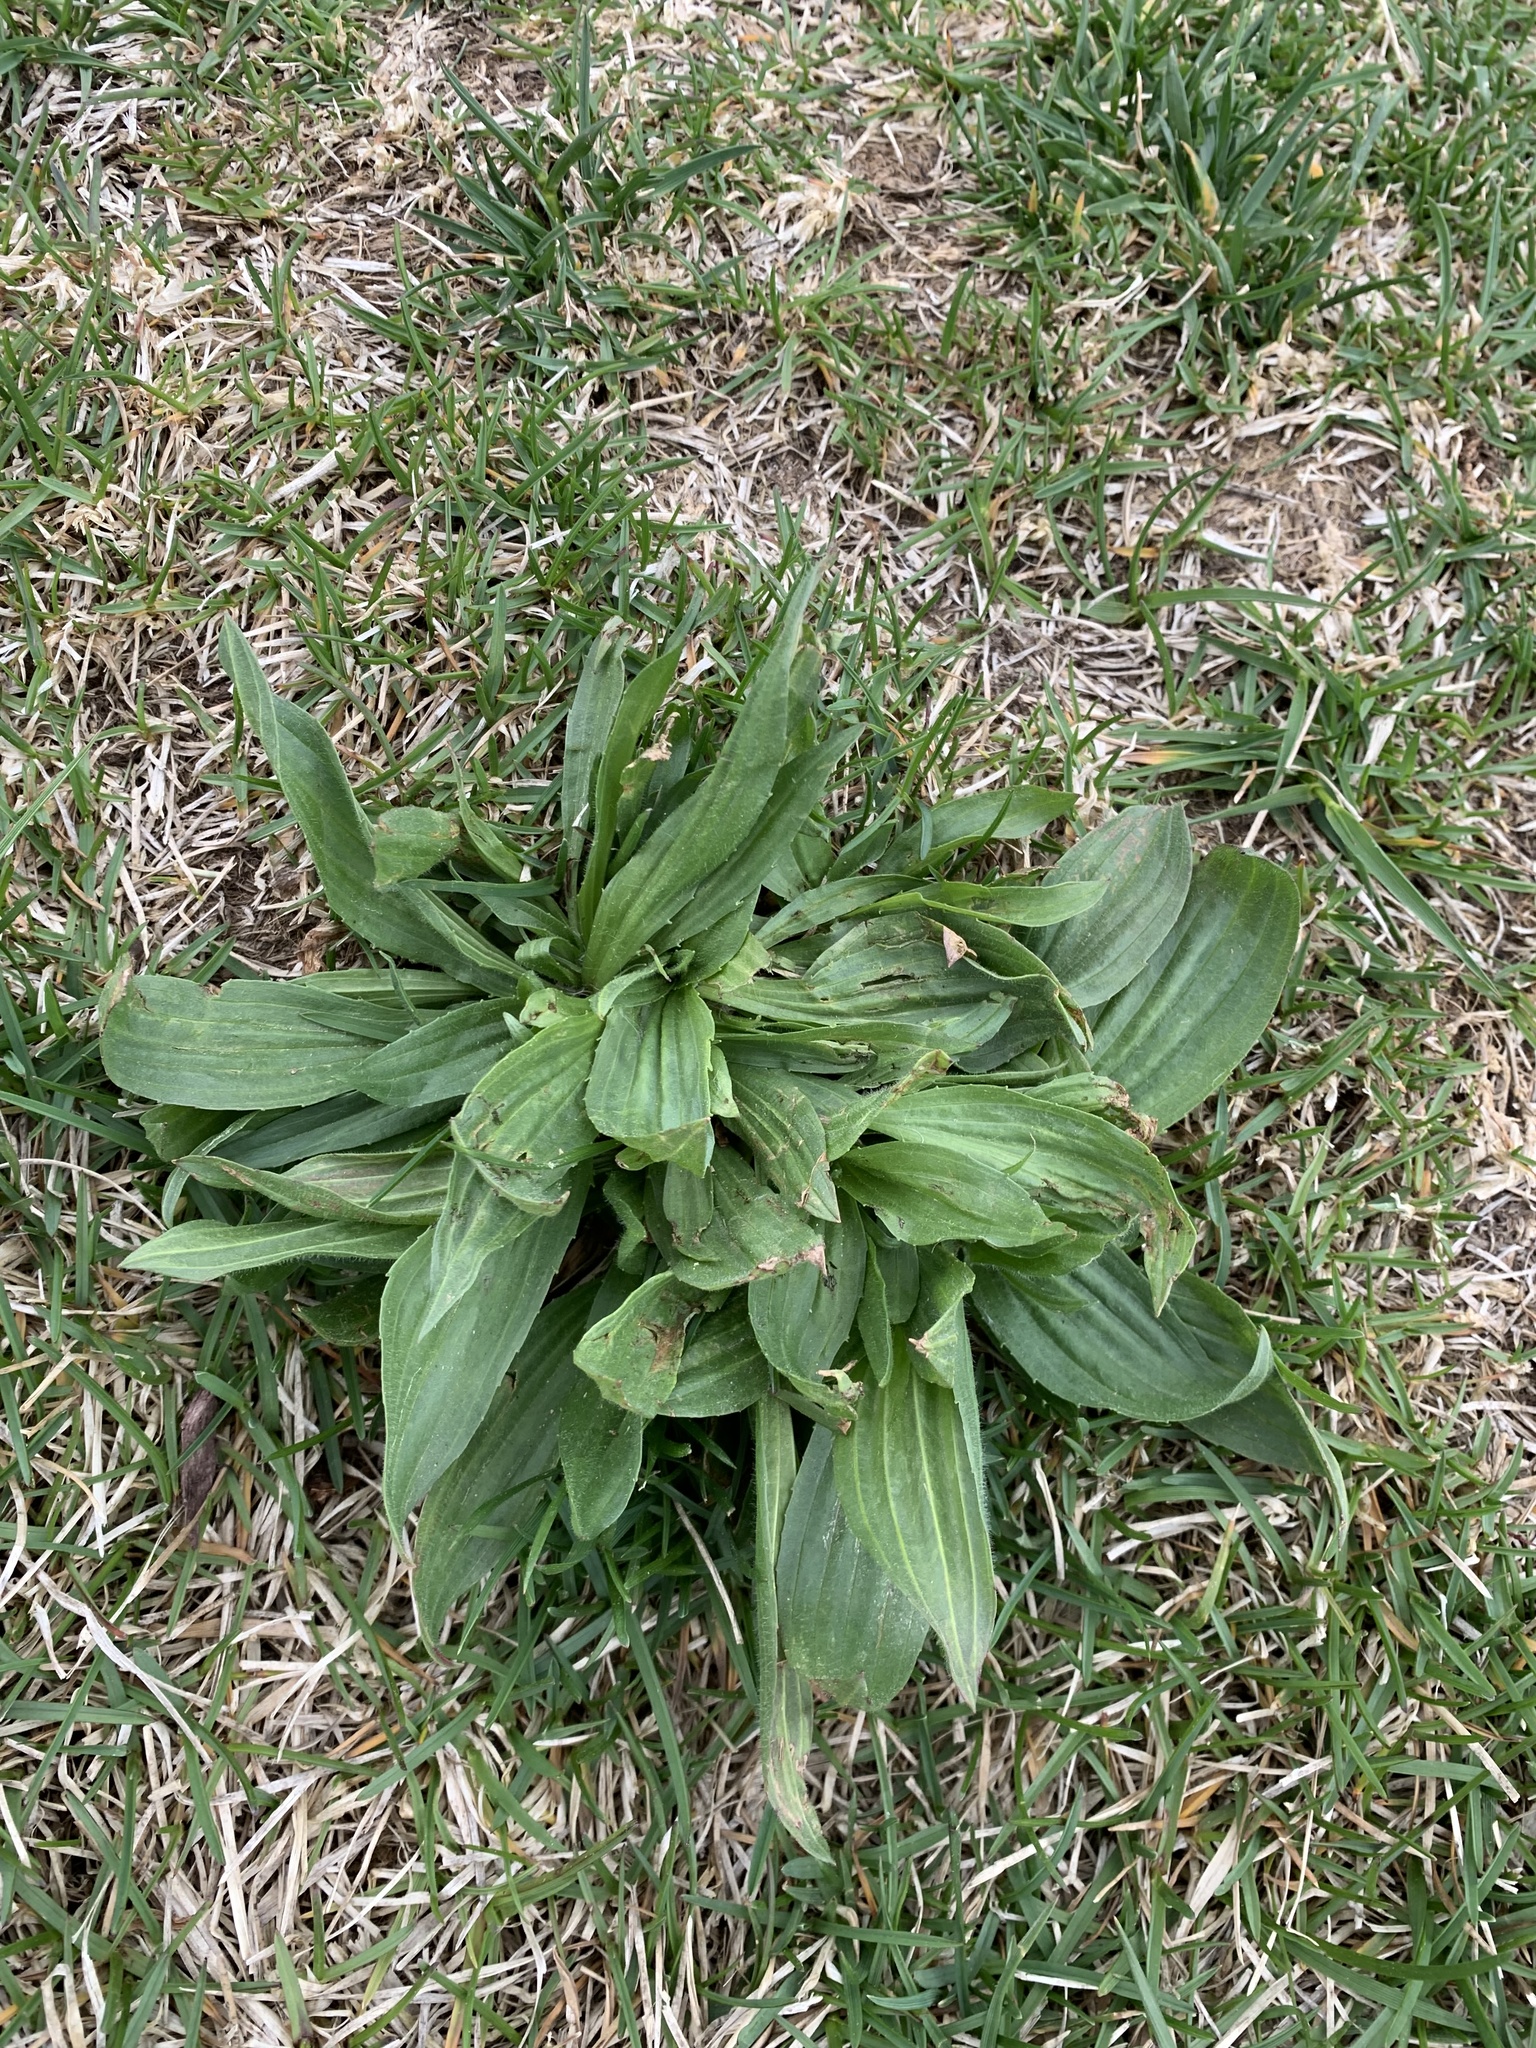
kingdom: Plantae
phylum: Tracheophyta
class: Magnoliopsida
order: Lamiales
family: Plantaginaceae
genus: Plantago
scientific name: Plantago lanceolata
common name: Ribwort plantain
